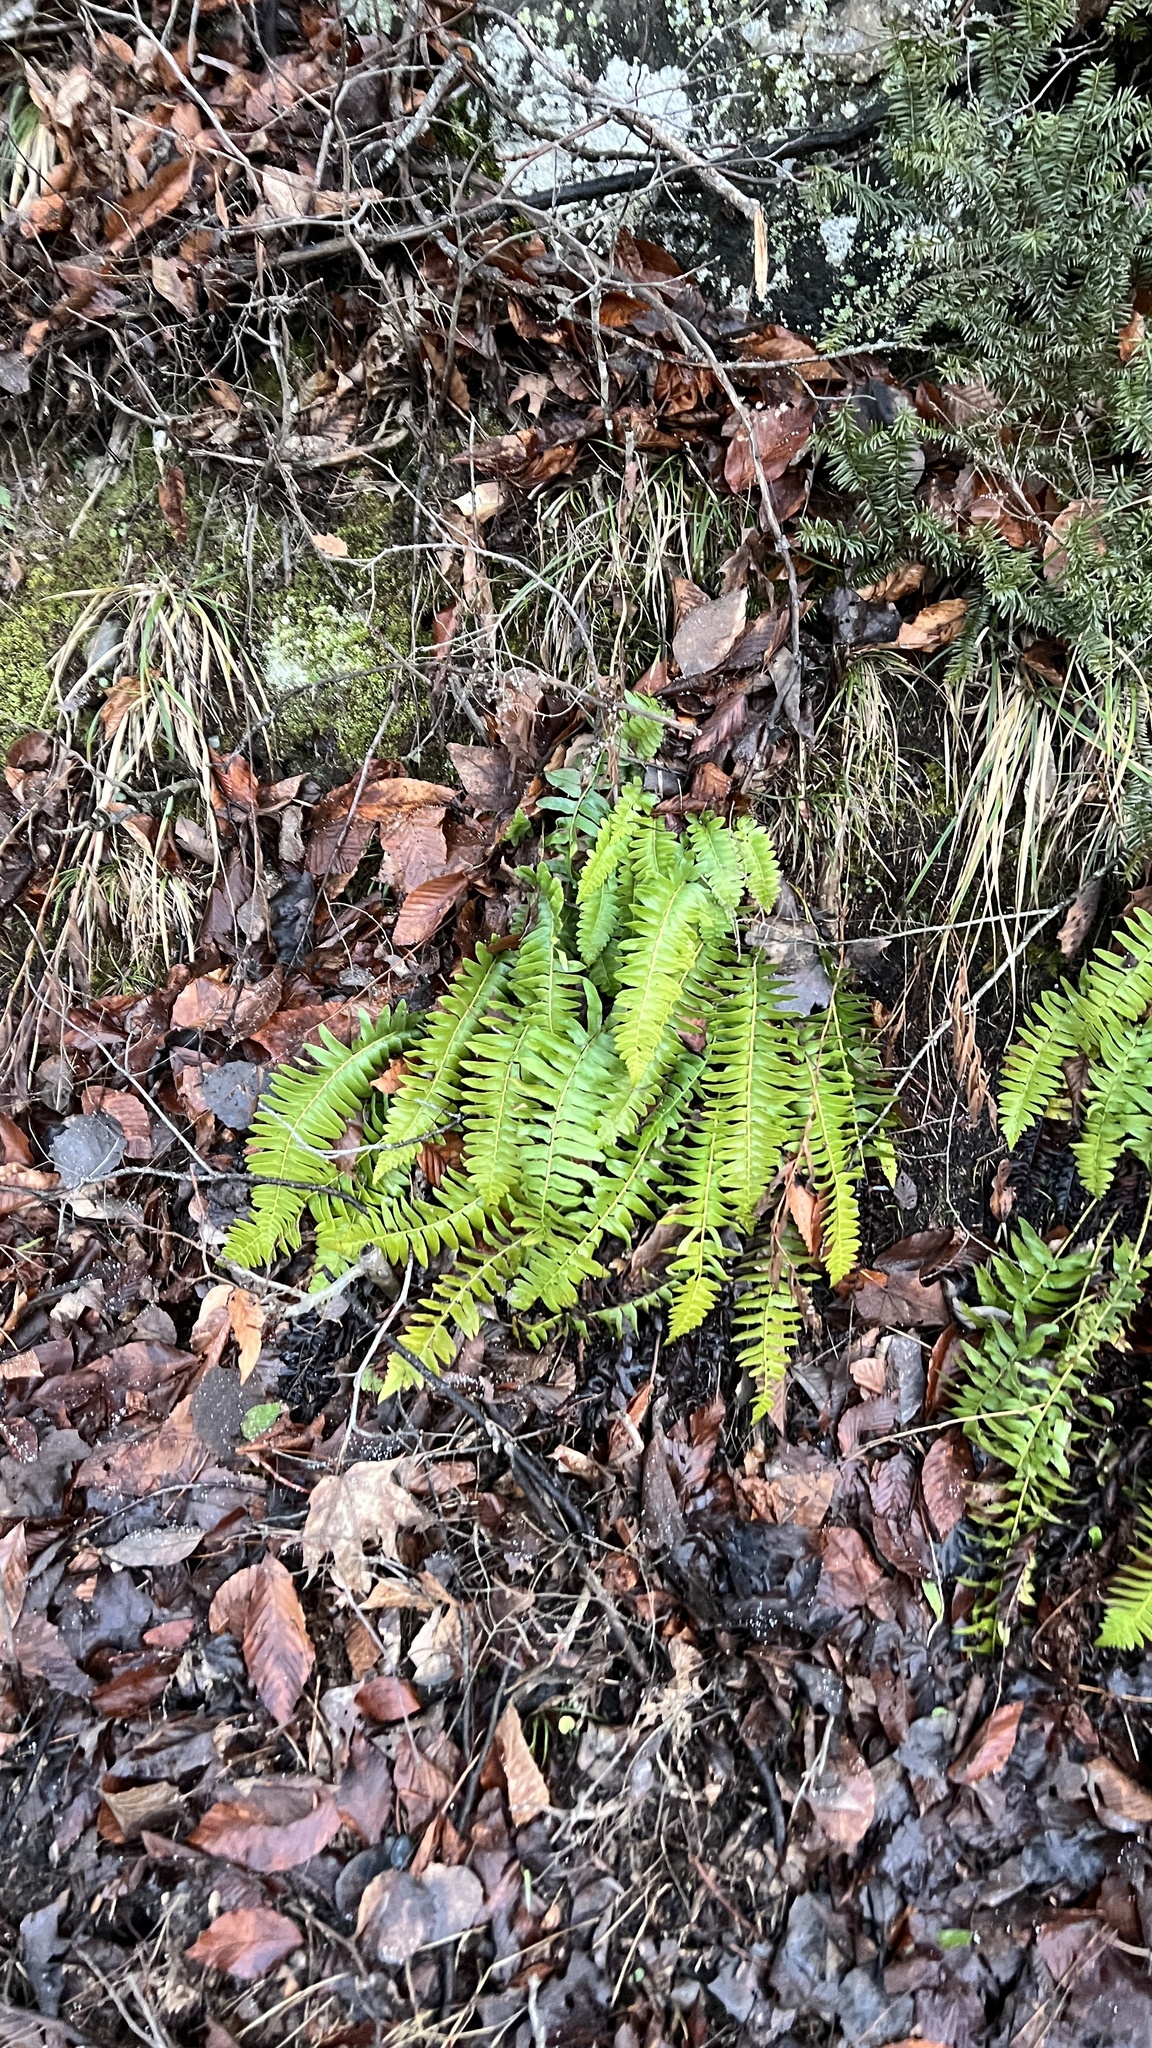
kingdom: Plantae
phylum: Tracheophyta
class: Polypodiopsida
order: Polypodiales
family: Dryopteridaceae
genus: Polystichum
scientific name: Polystichum acrostichoides
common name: Christmas fern
